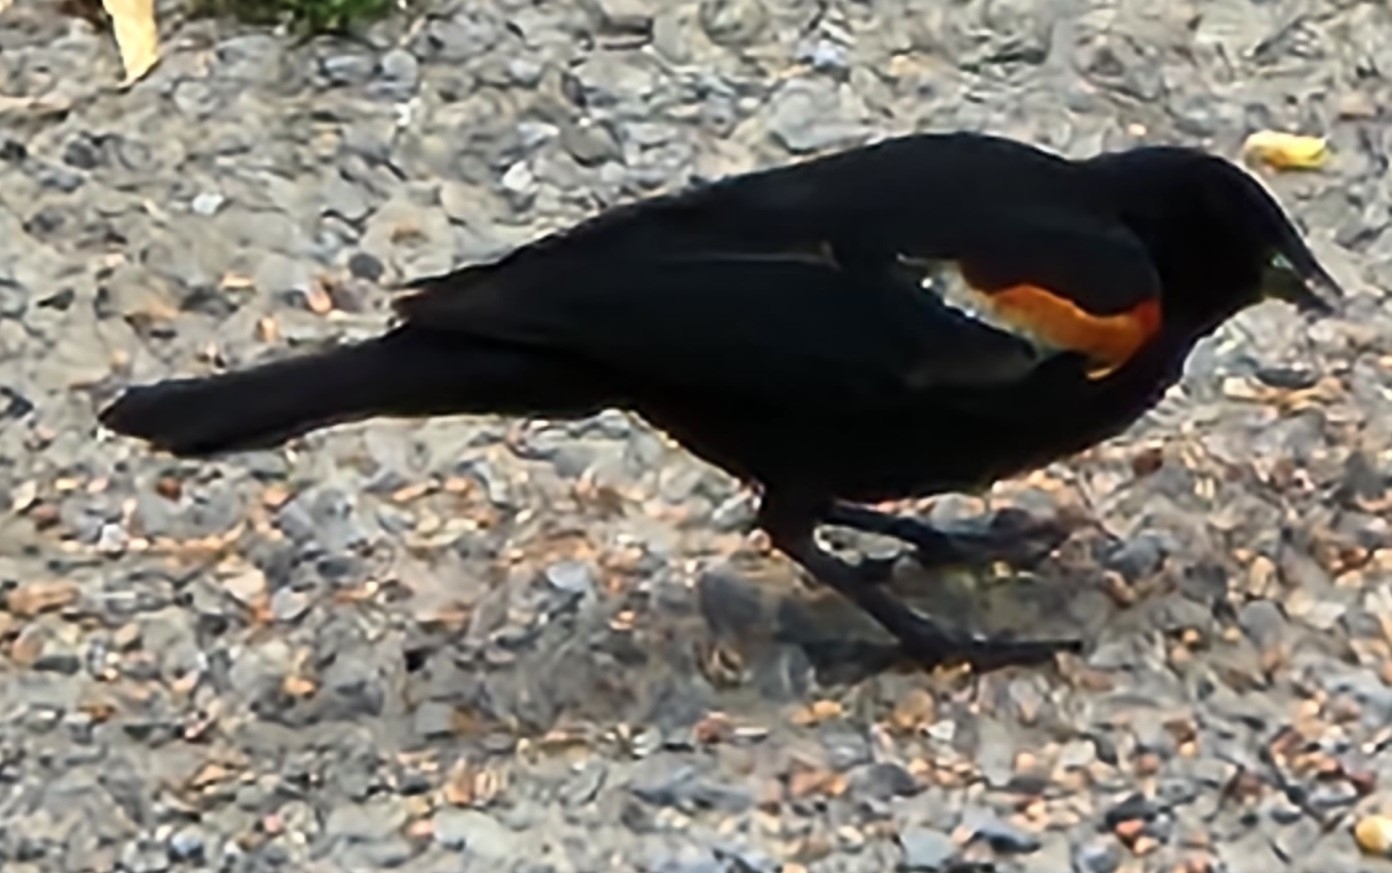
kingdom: Animalia
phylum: Chordata
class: Aves
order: Passeriformes
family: Icteridae
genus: Agelaius
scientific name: Agelaius phoeniceus
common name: Red-winged blackbird
